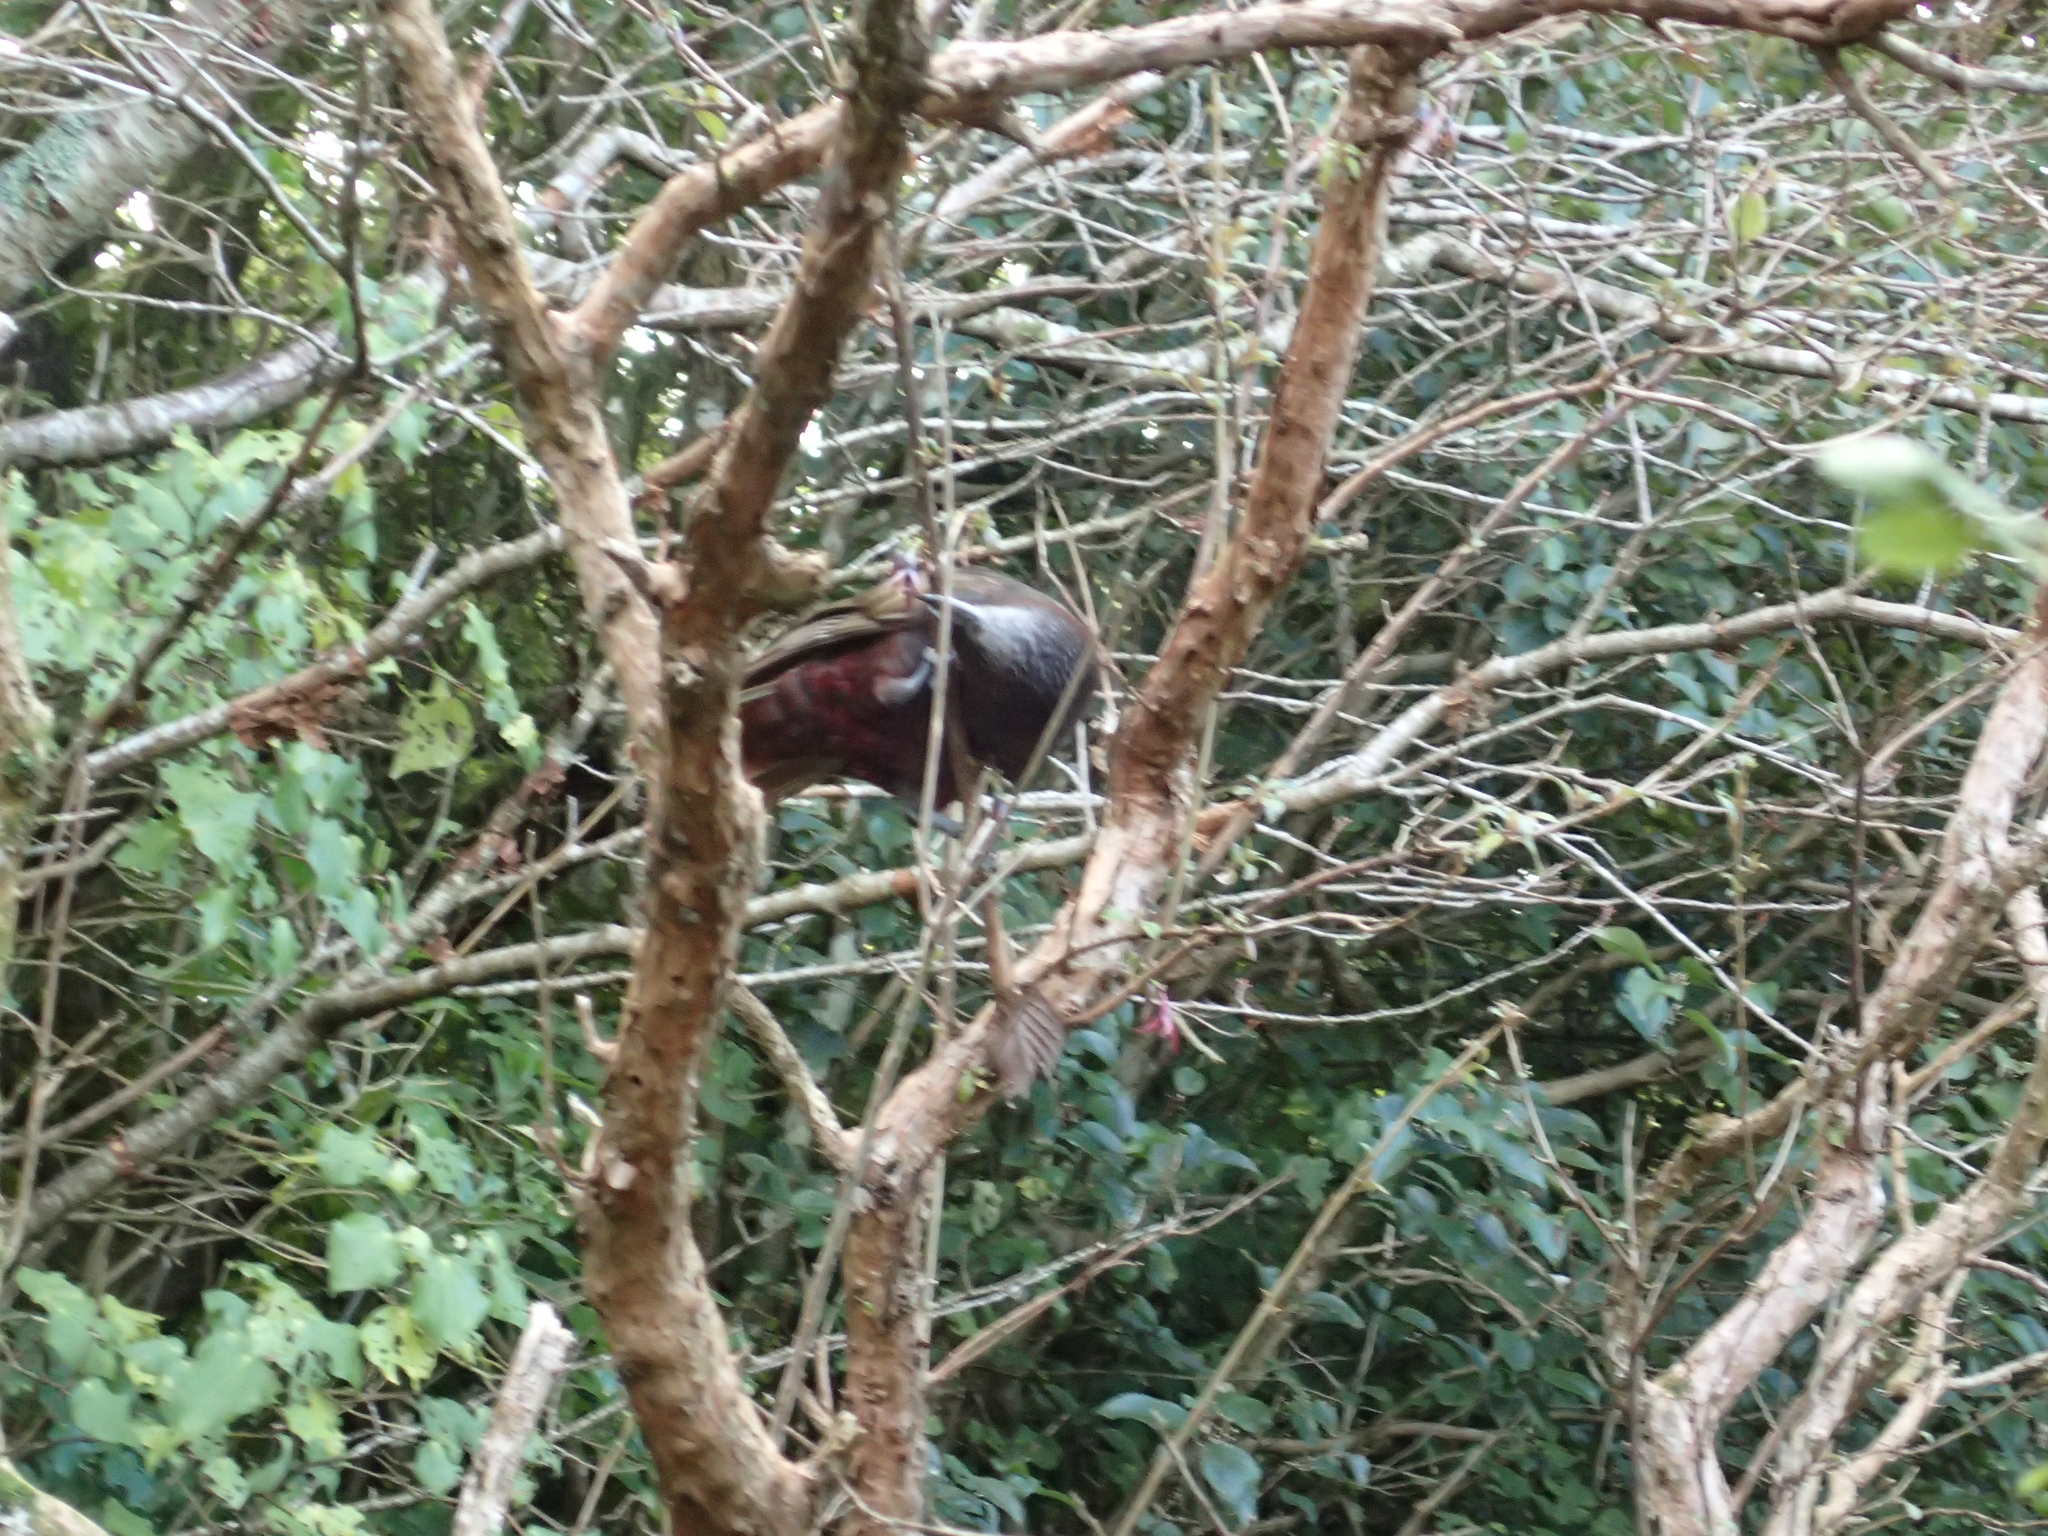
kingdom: Animalia
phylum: Chordata
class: Aves
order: Psittaciformes
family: Psittacidae
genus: Nestor
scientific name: Nestor meridionalis
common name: New zealand kaka
